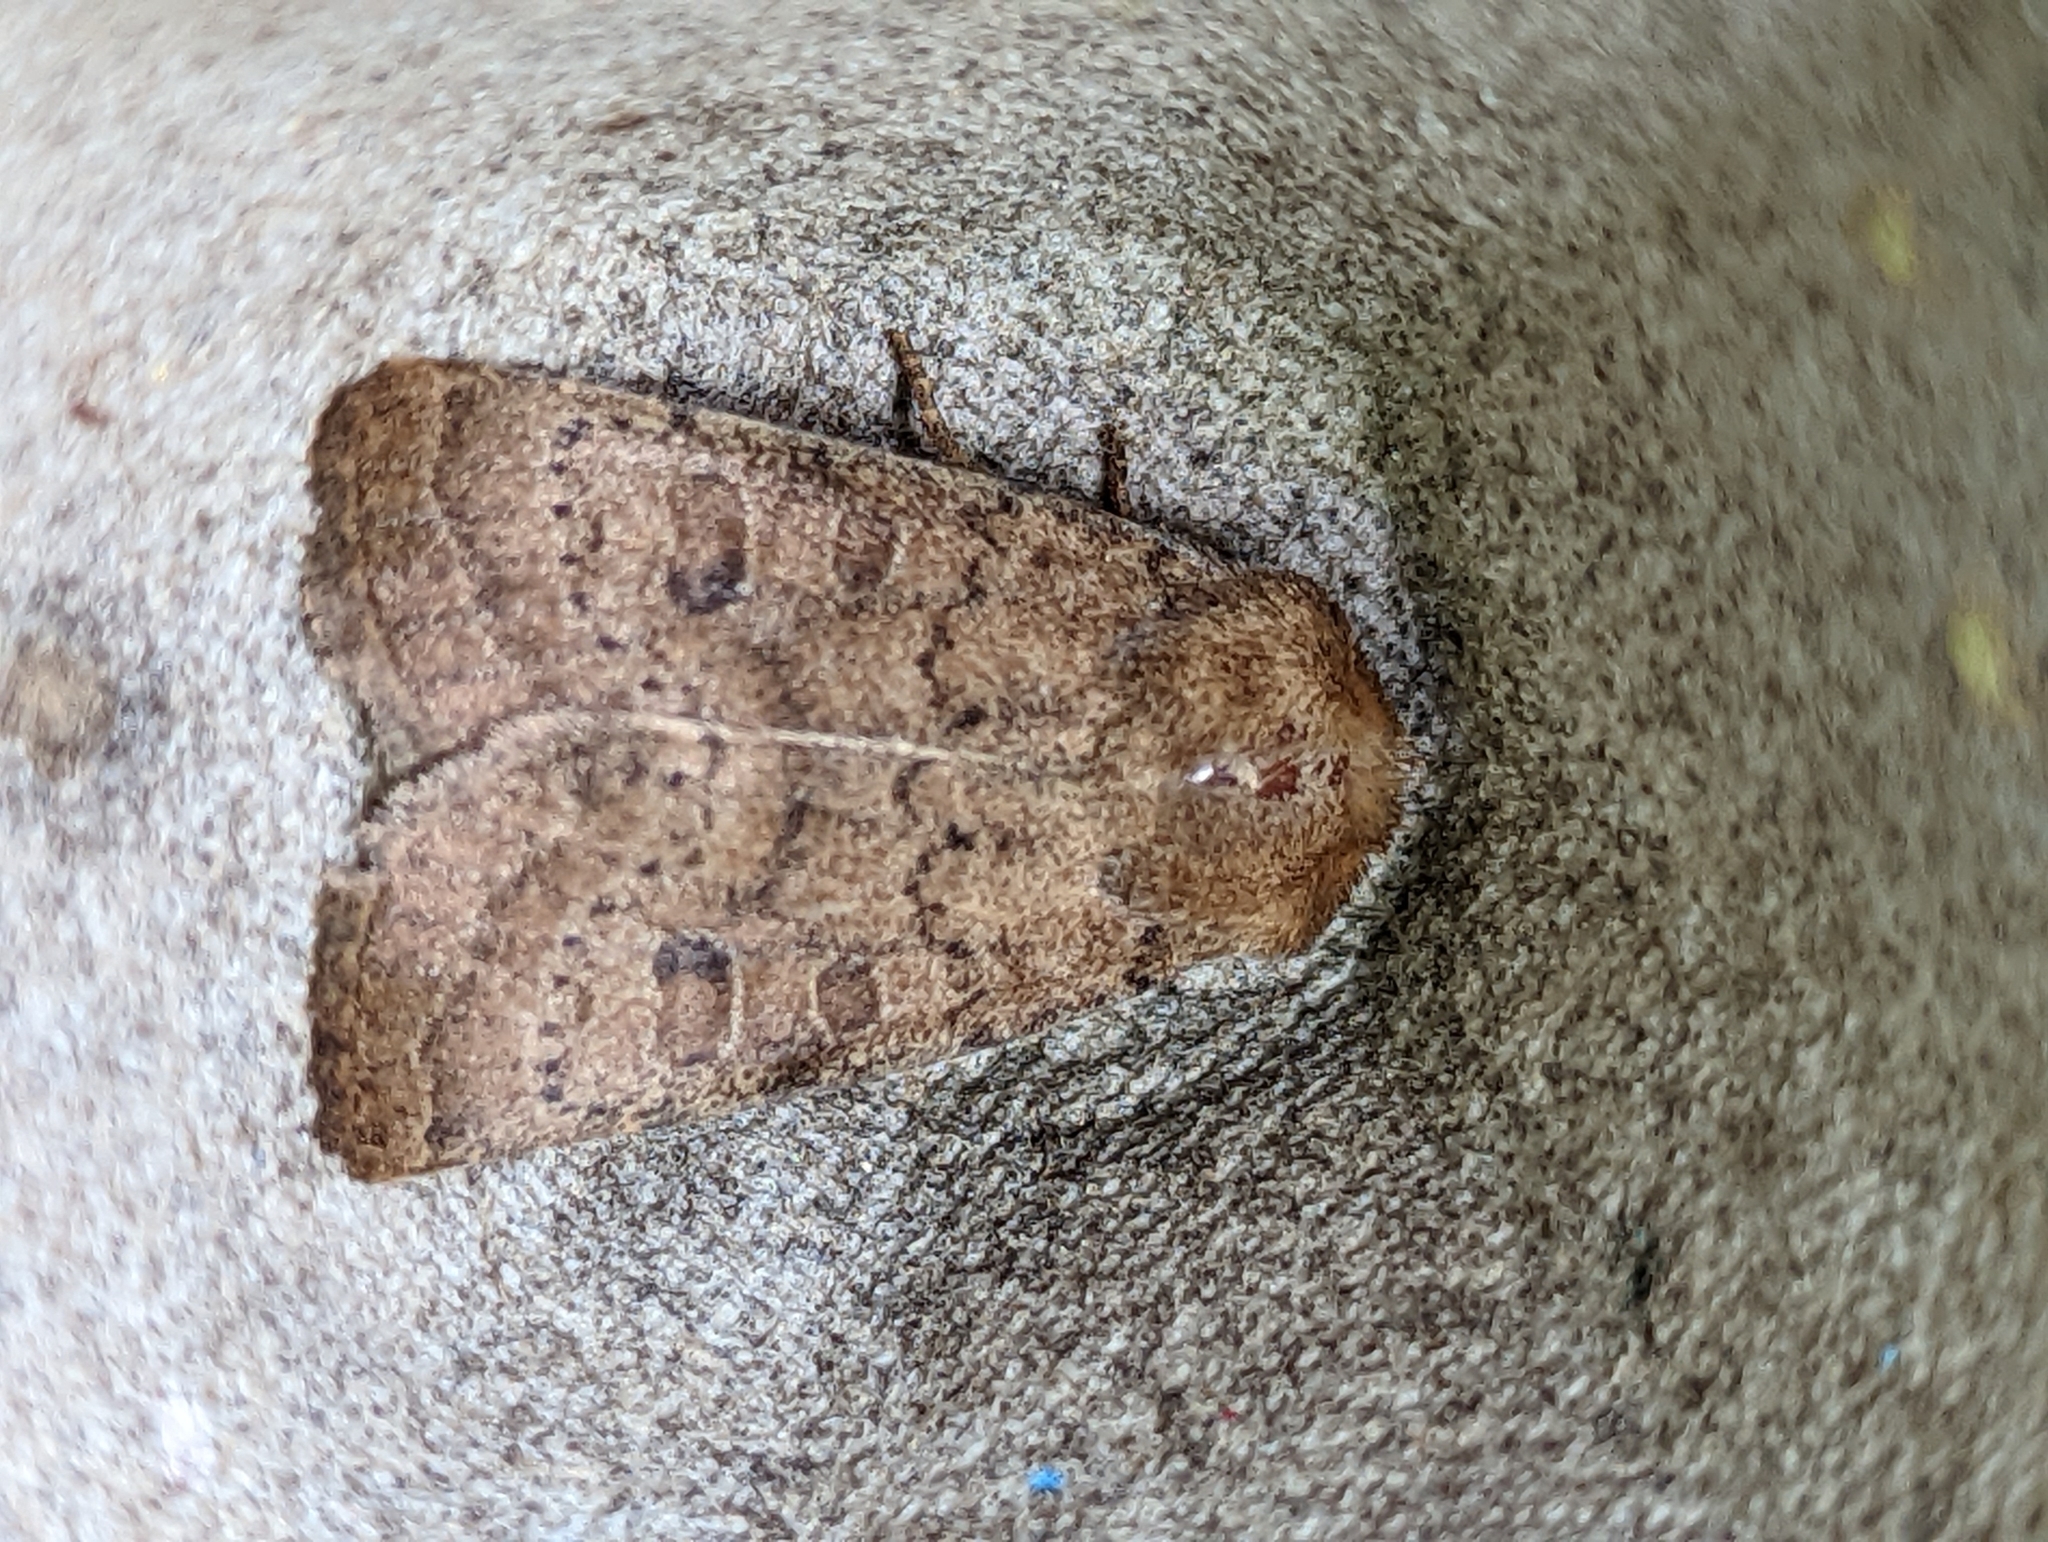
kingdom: Animalia
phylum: Arthropoda
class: Insecta
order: Lepidoptera
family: Noctuidae
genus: Hoplodrina
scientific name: Hoplodrina octogenaria
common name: Uncertain
